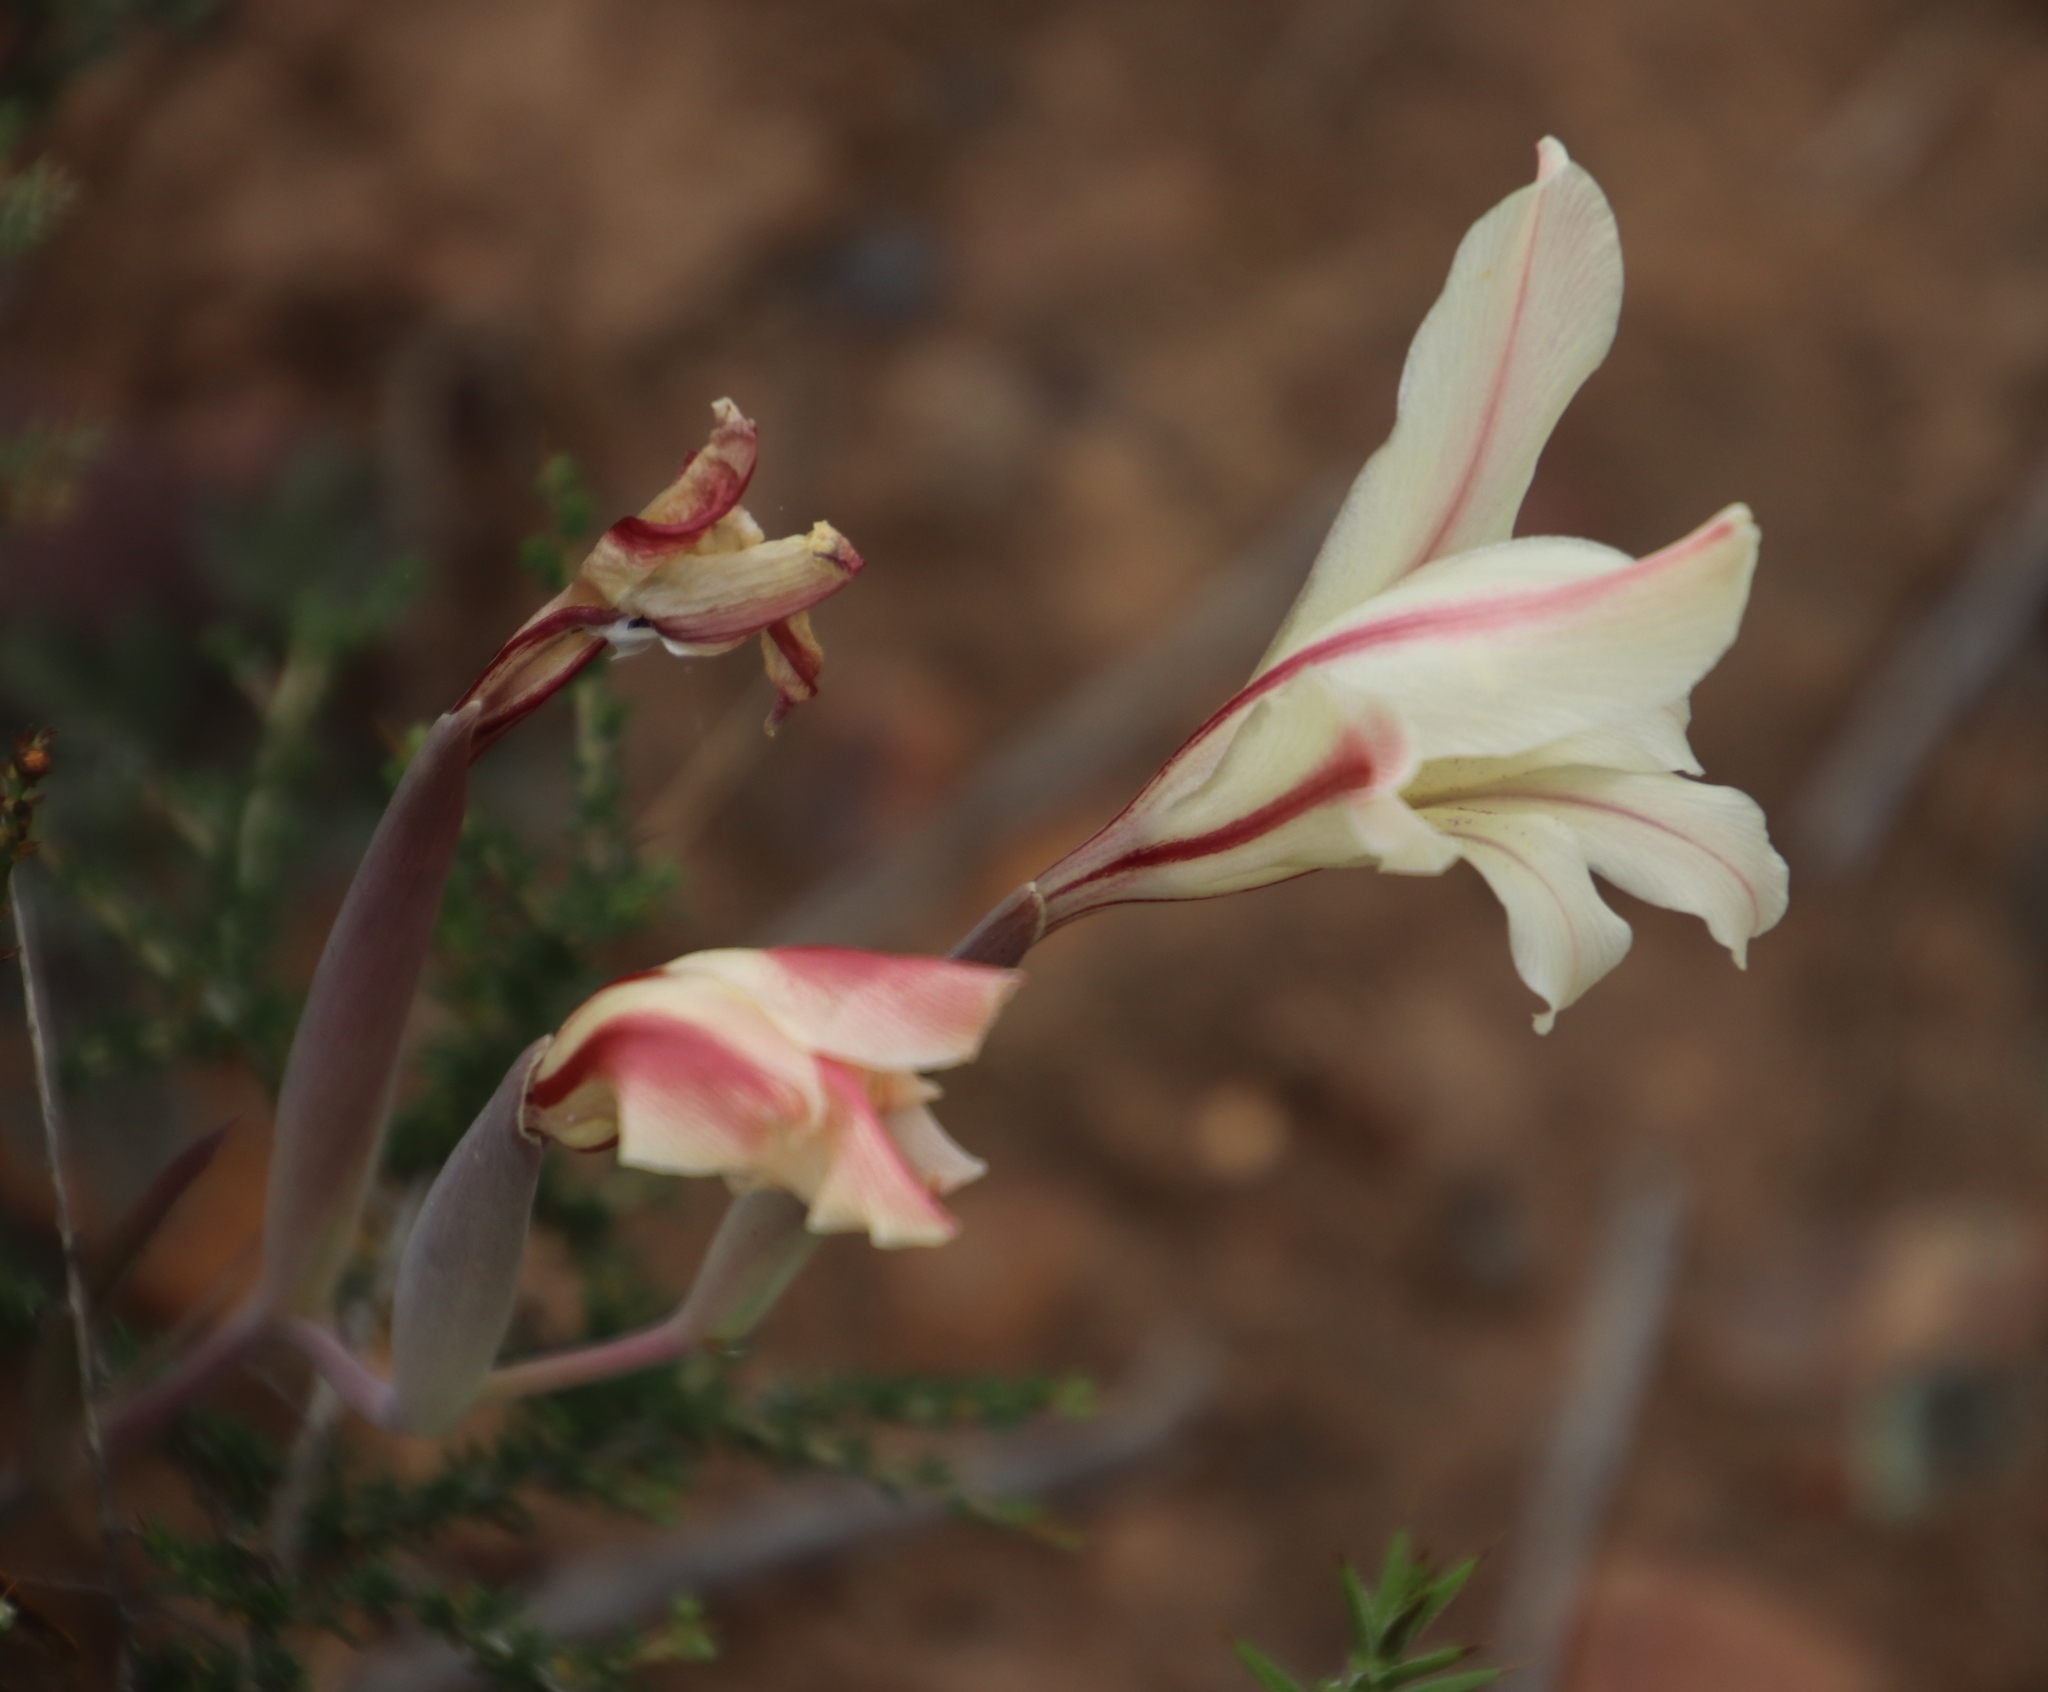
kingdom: Plantae
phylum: Tracheophyta
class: Liliopsida
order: Asparagales
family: Iridaceae
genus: Gladiolus
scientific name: Gladiolus floribundus
